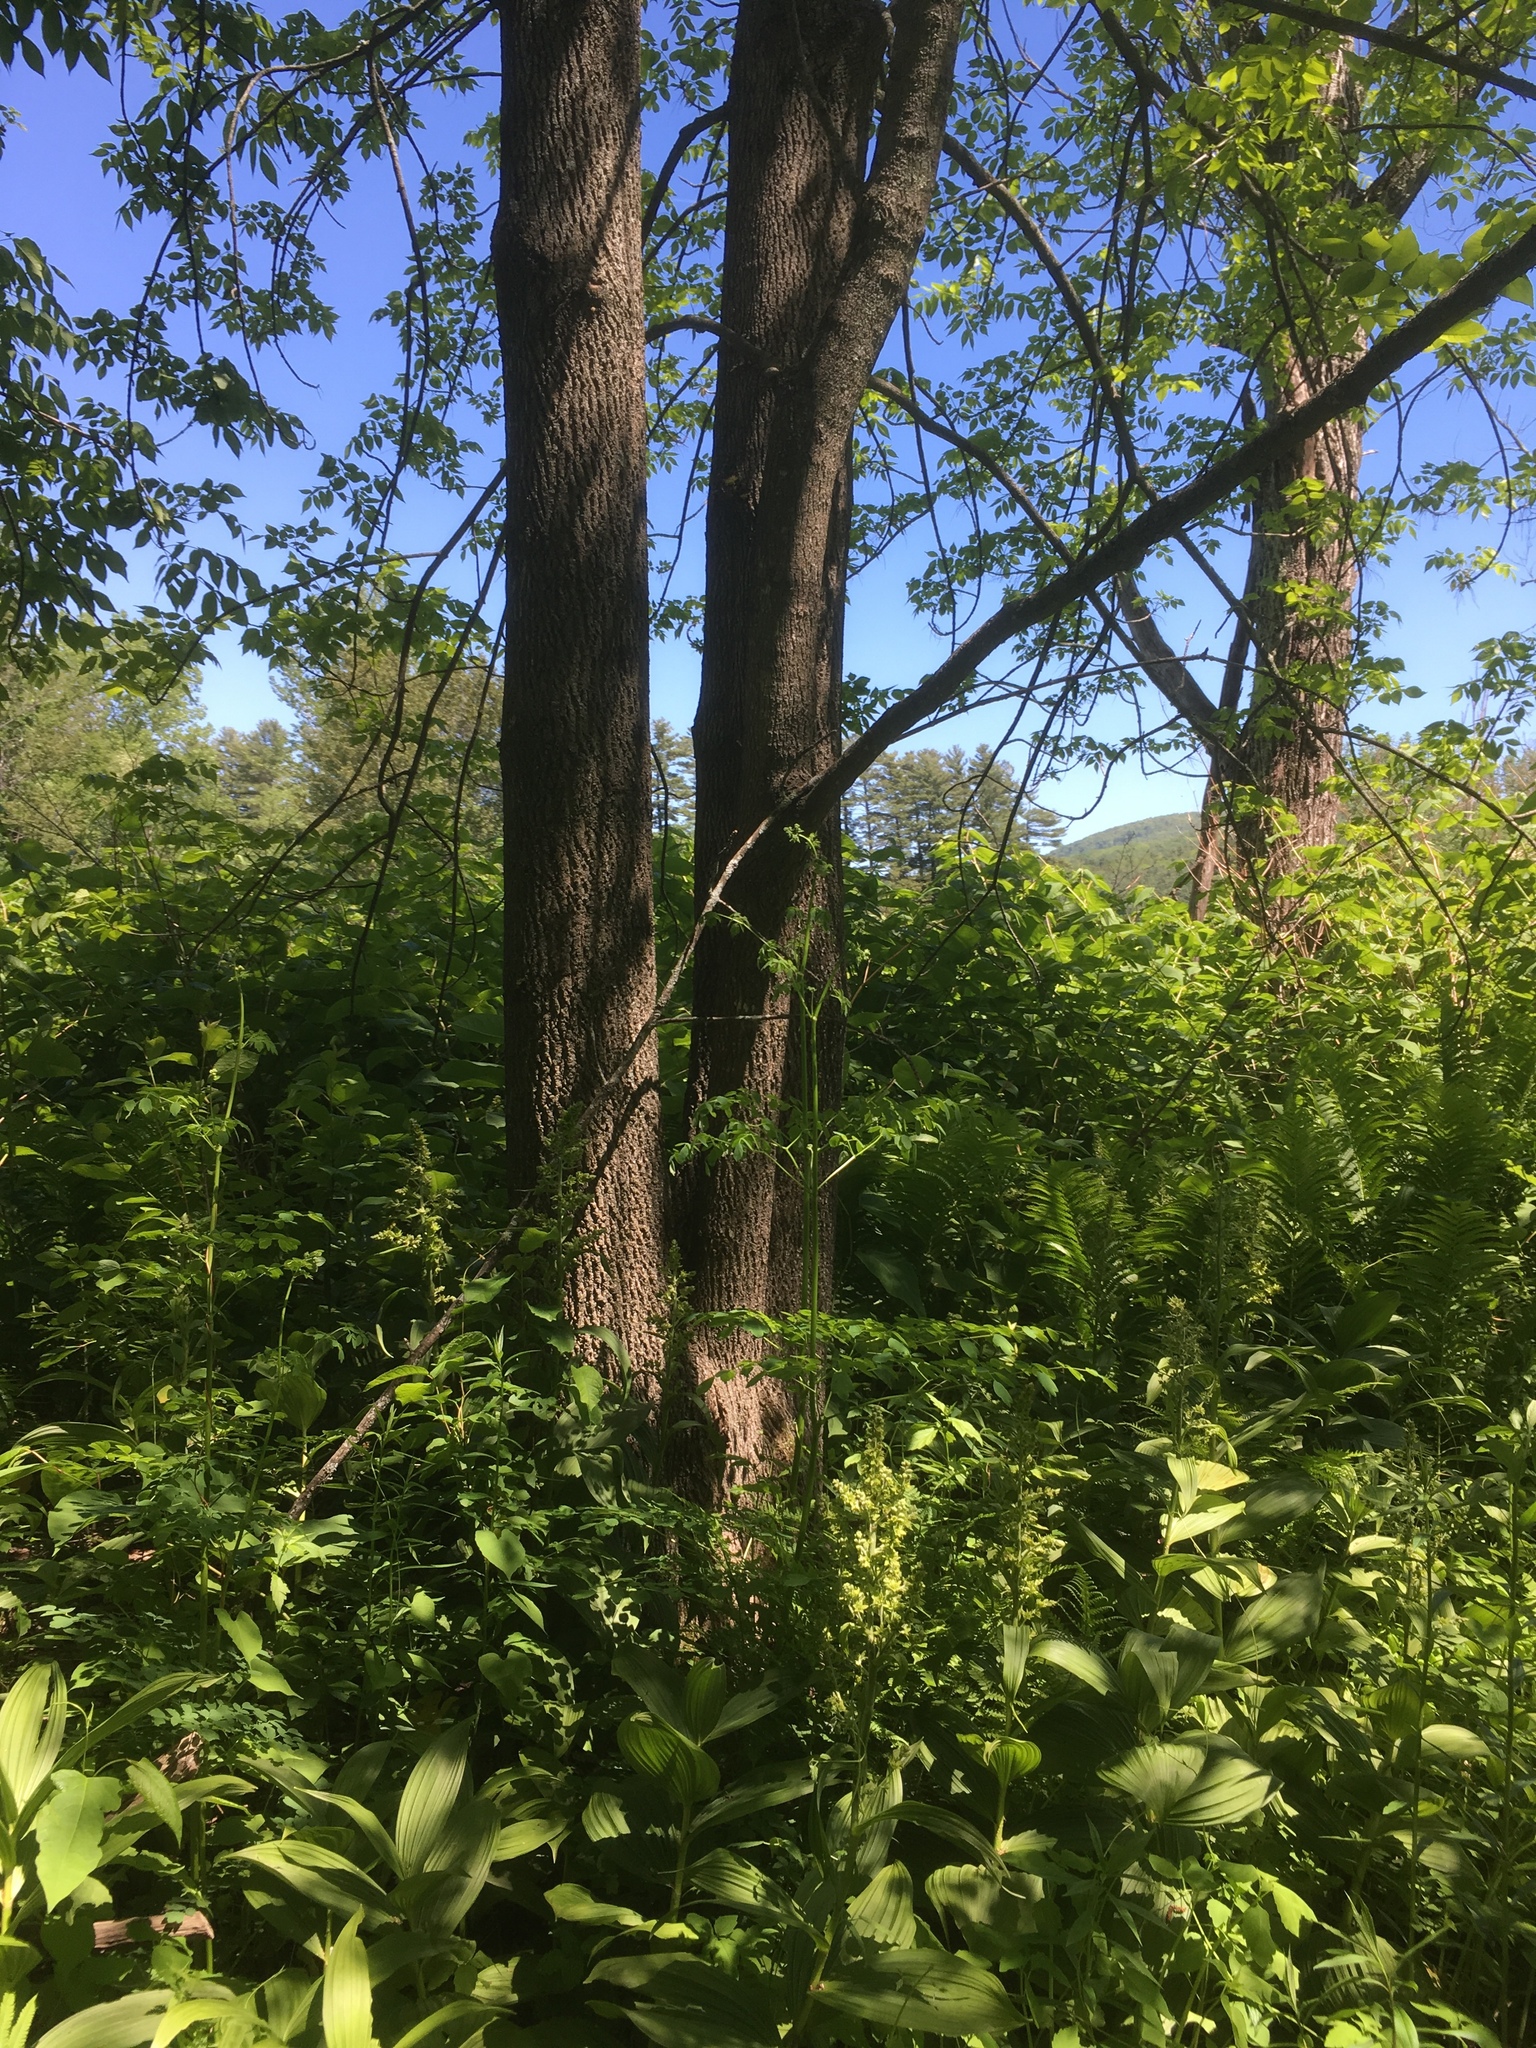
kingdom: Plantae
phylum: Tracheophyta
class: Magnoliopsida
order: Lamiales
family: Oleaceae
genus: Fraxinus
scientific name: Fraxinus americana
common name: White ash
